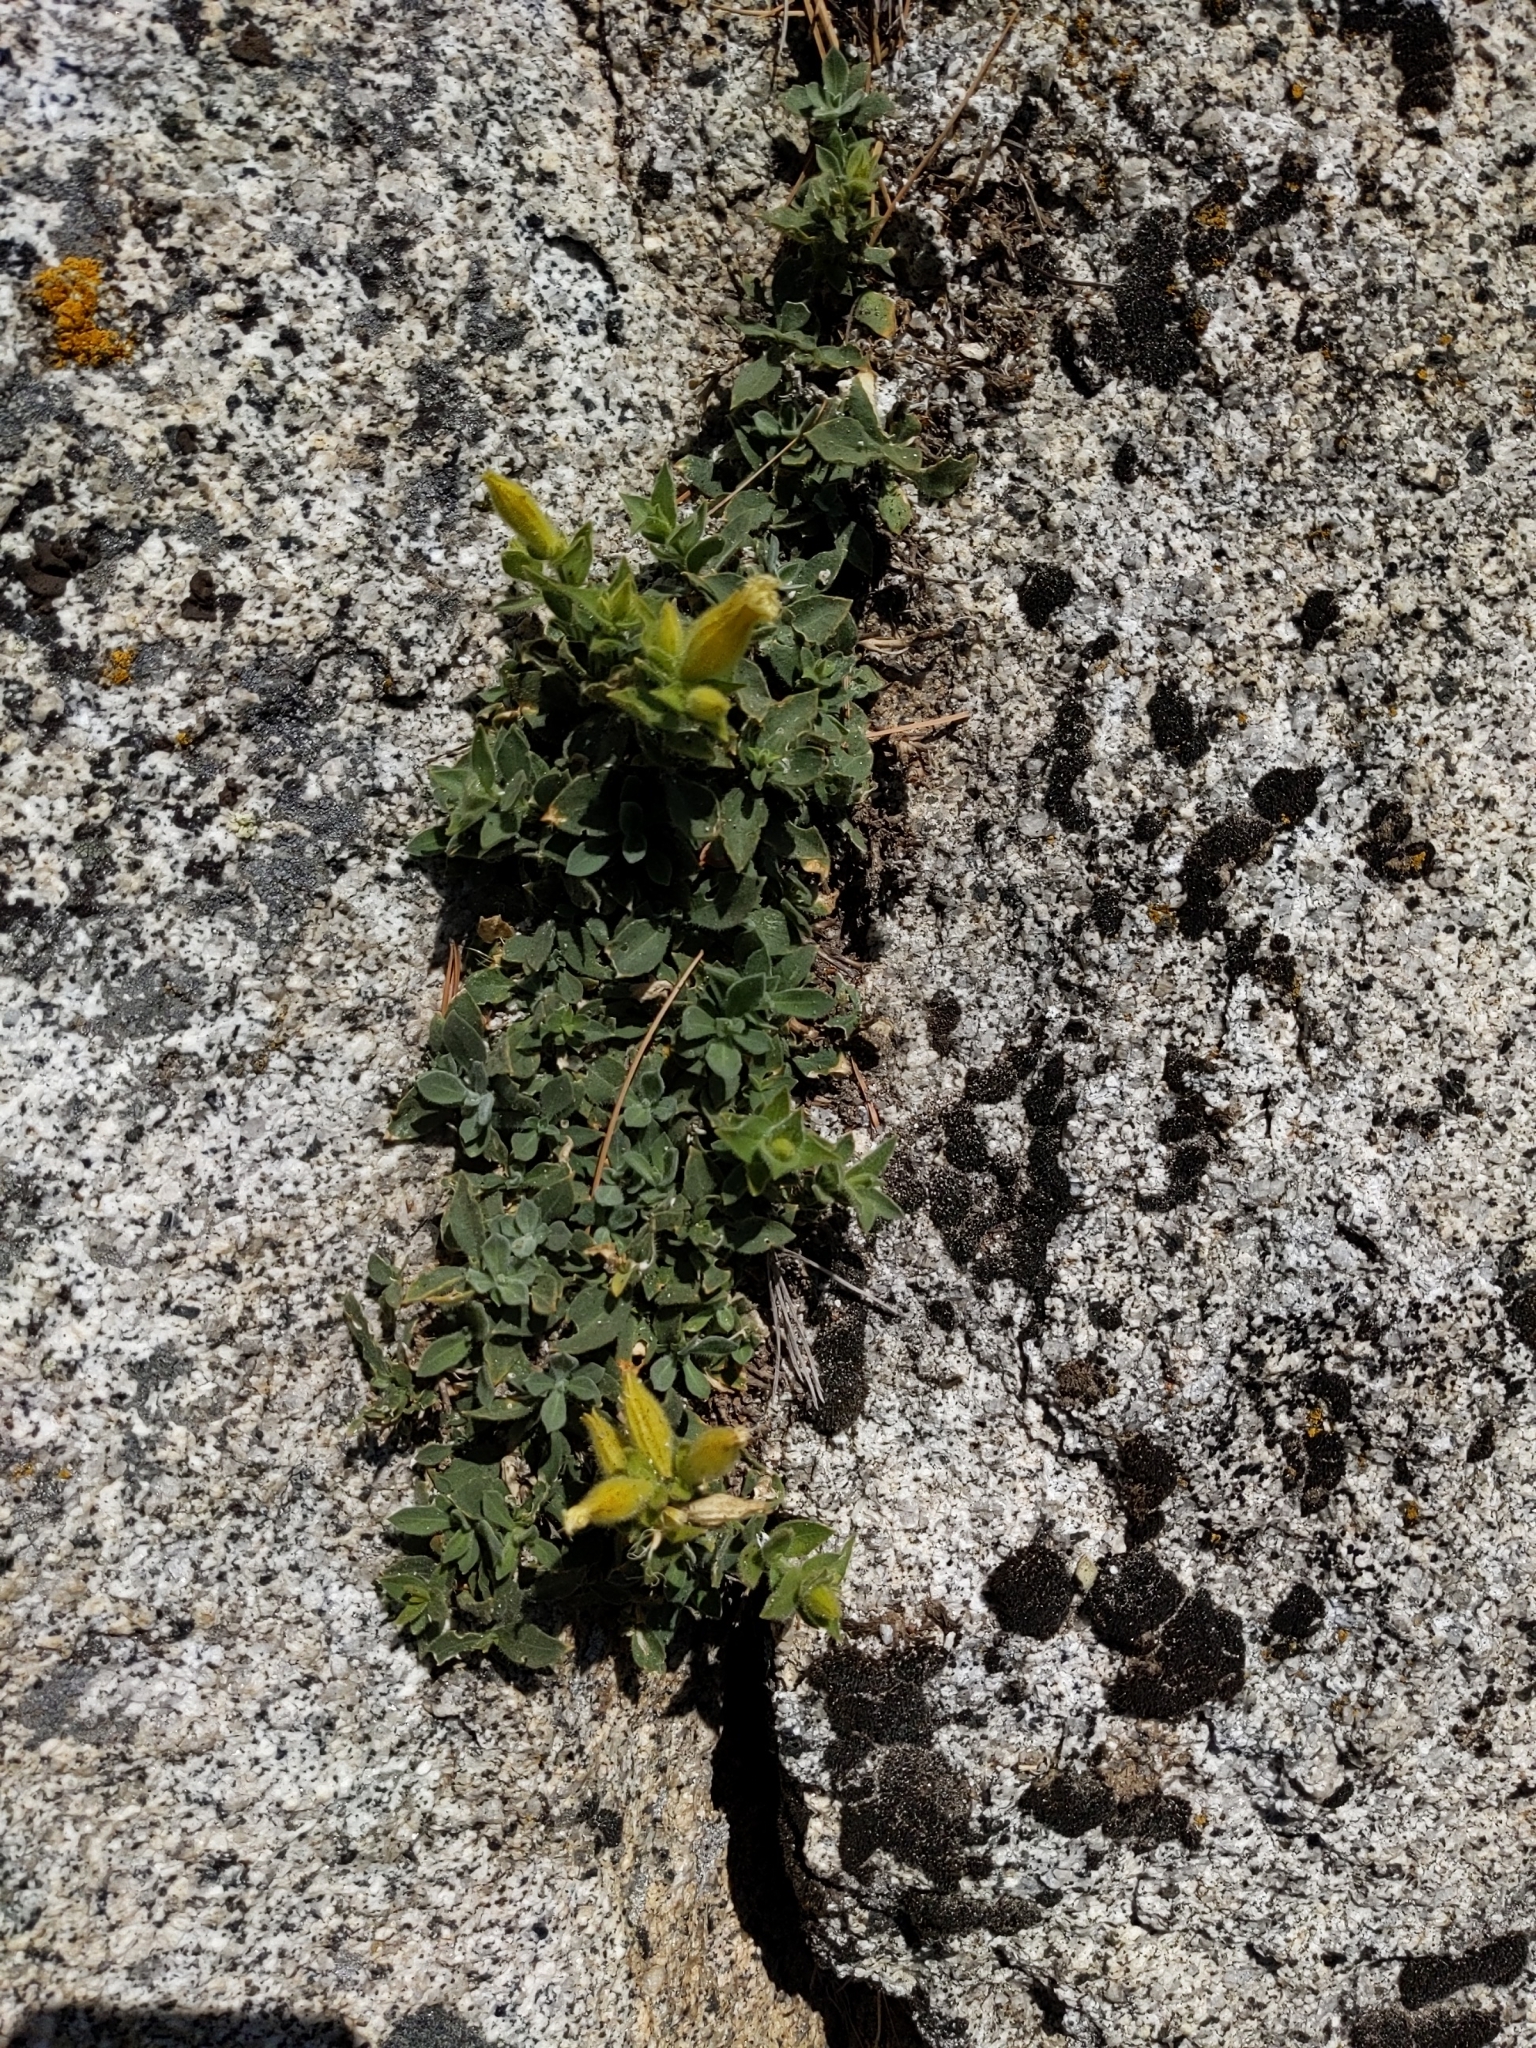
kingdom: Plantae
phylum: Tracheophyta
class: Magnoliopsida
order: Caryophyllales
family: Caryophyllaceae
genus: Silene
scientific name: Silene parishii
